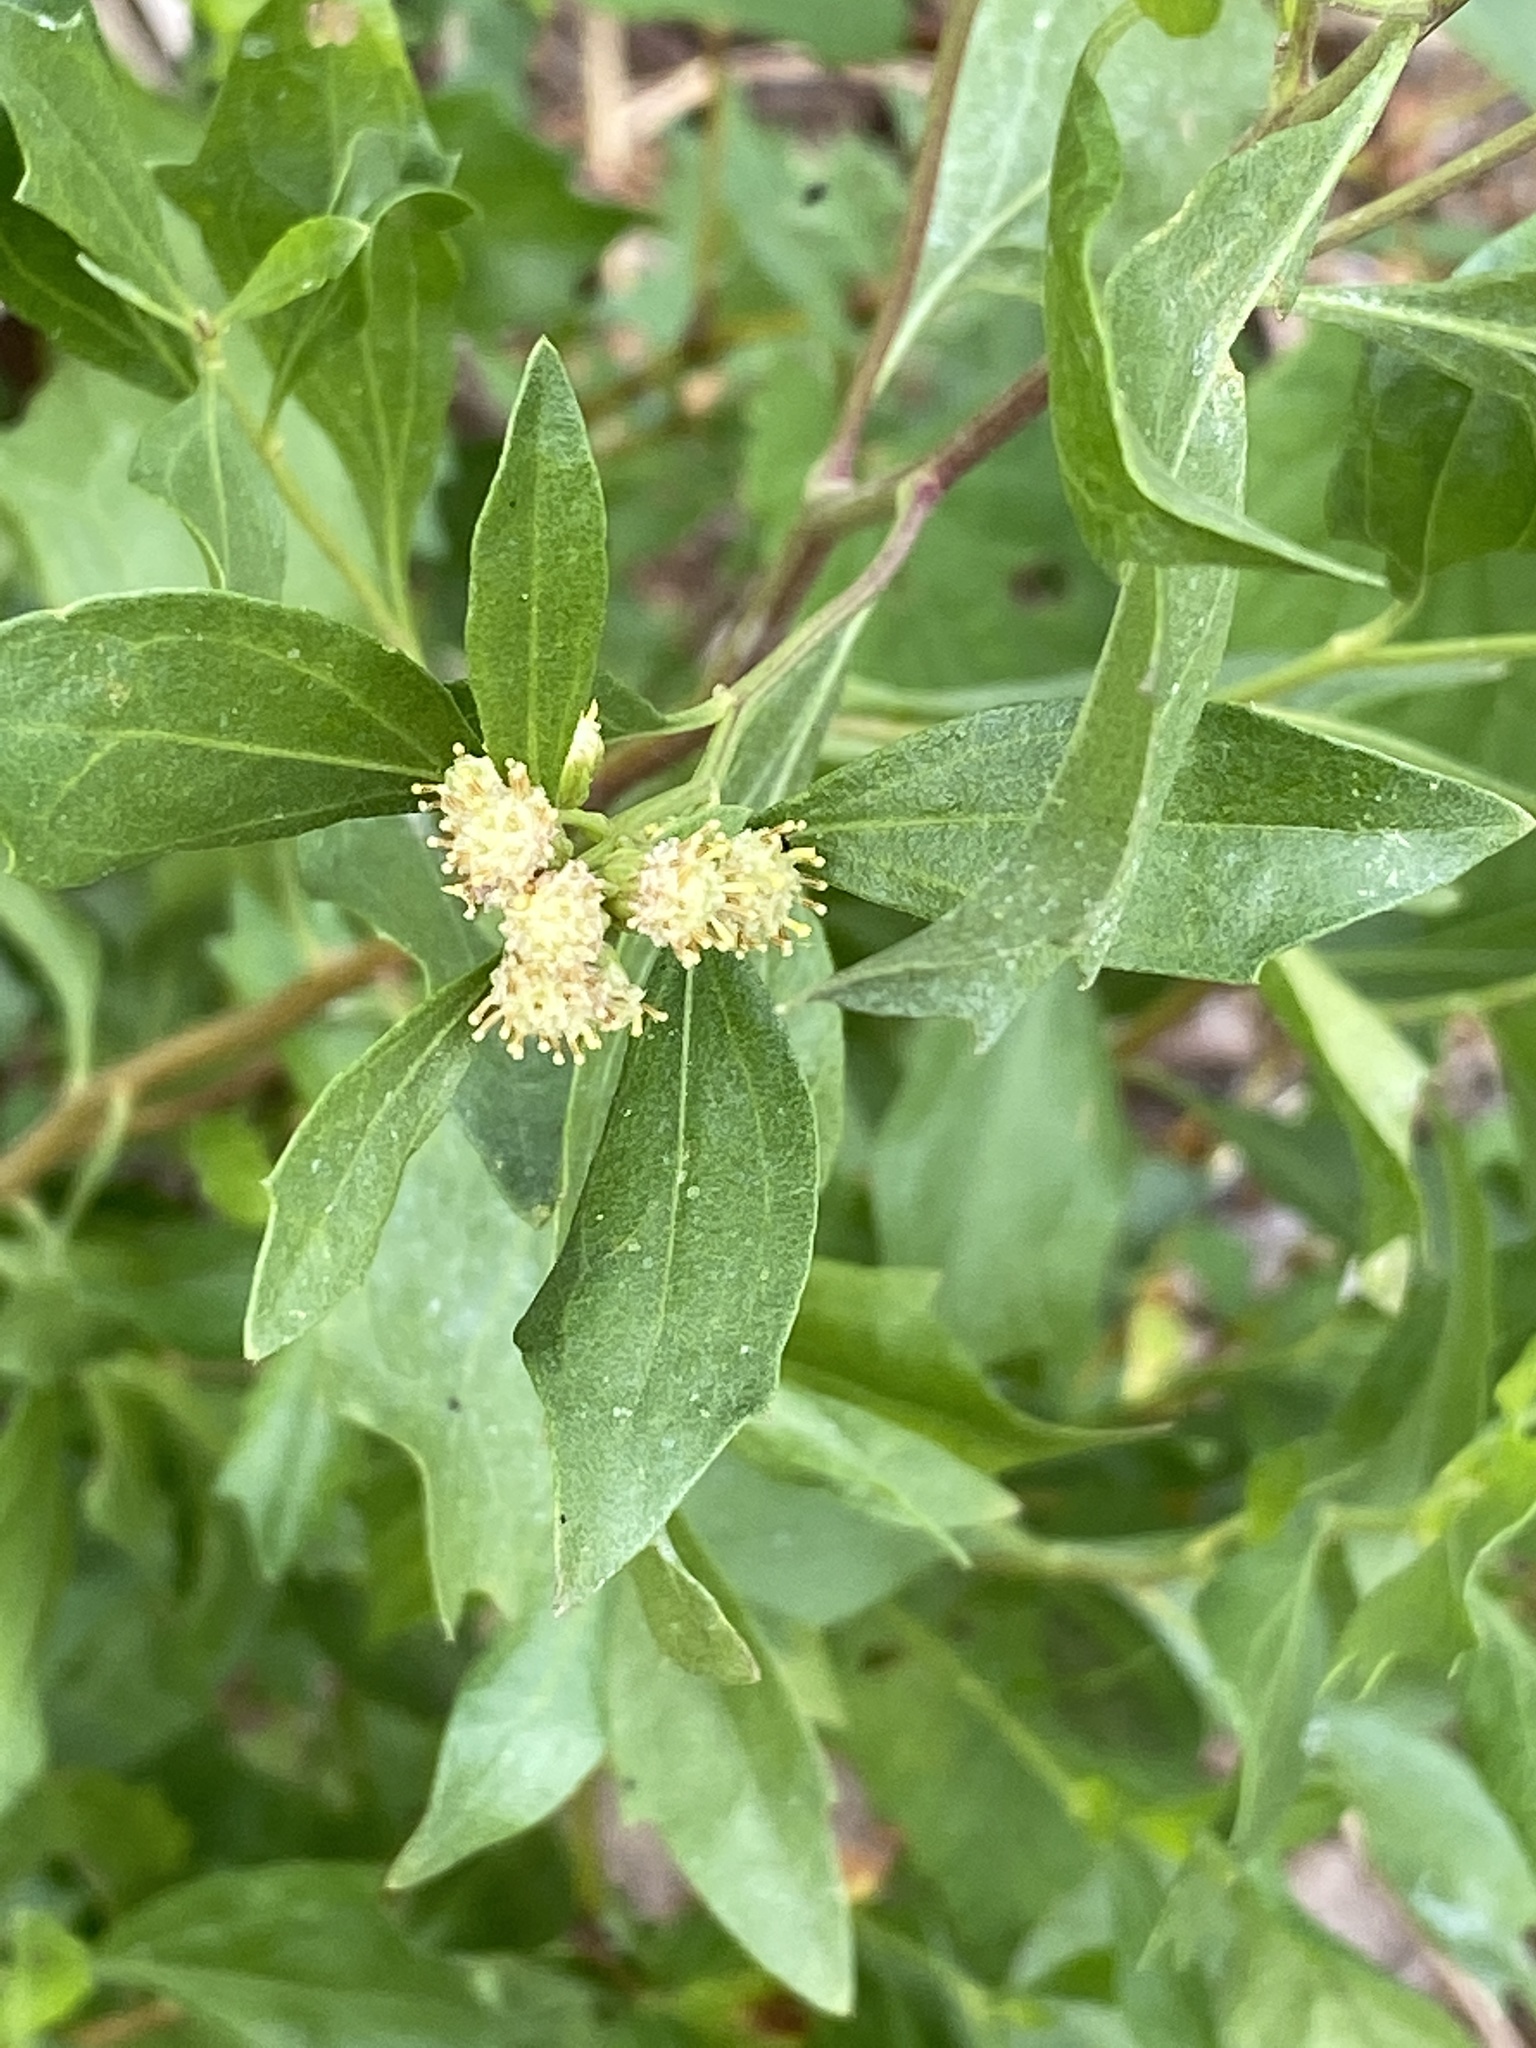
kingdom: Plantae
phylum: Tracheophyta
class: Magnoliopsida
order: Asterales
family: Asteraceae
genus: Baccharis
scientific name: Baccharis halimifolia
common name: Eastern baccharis
